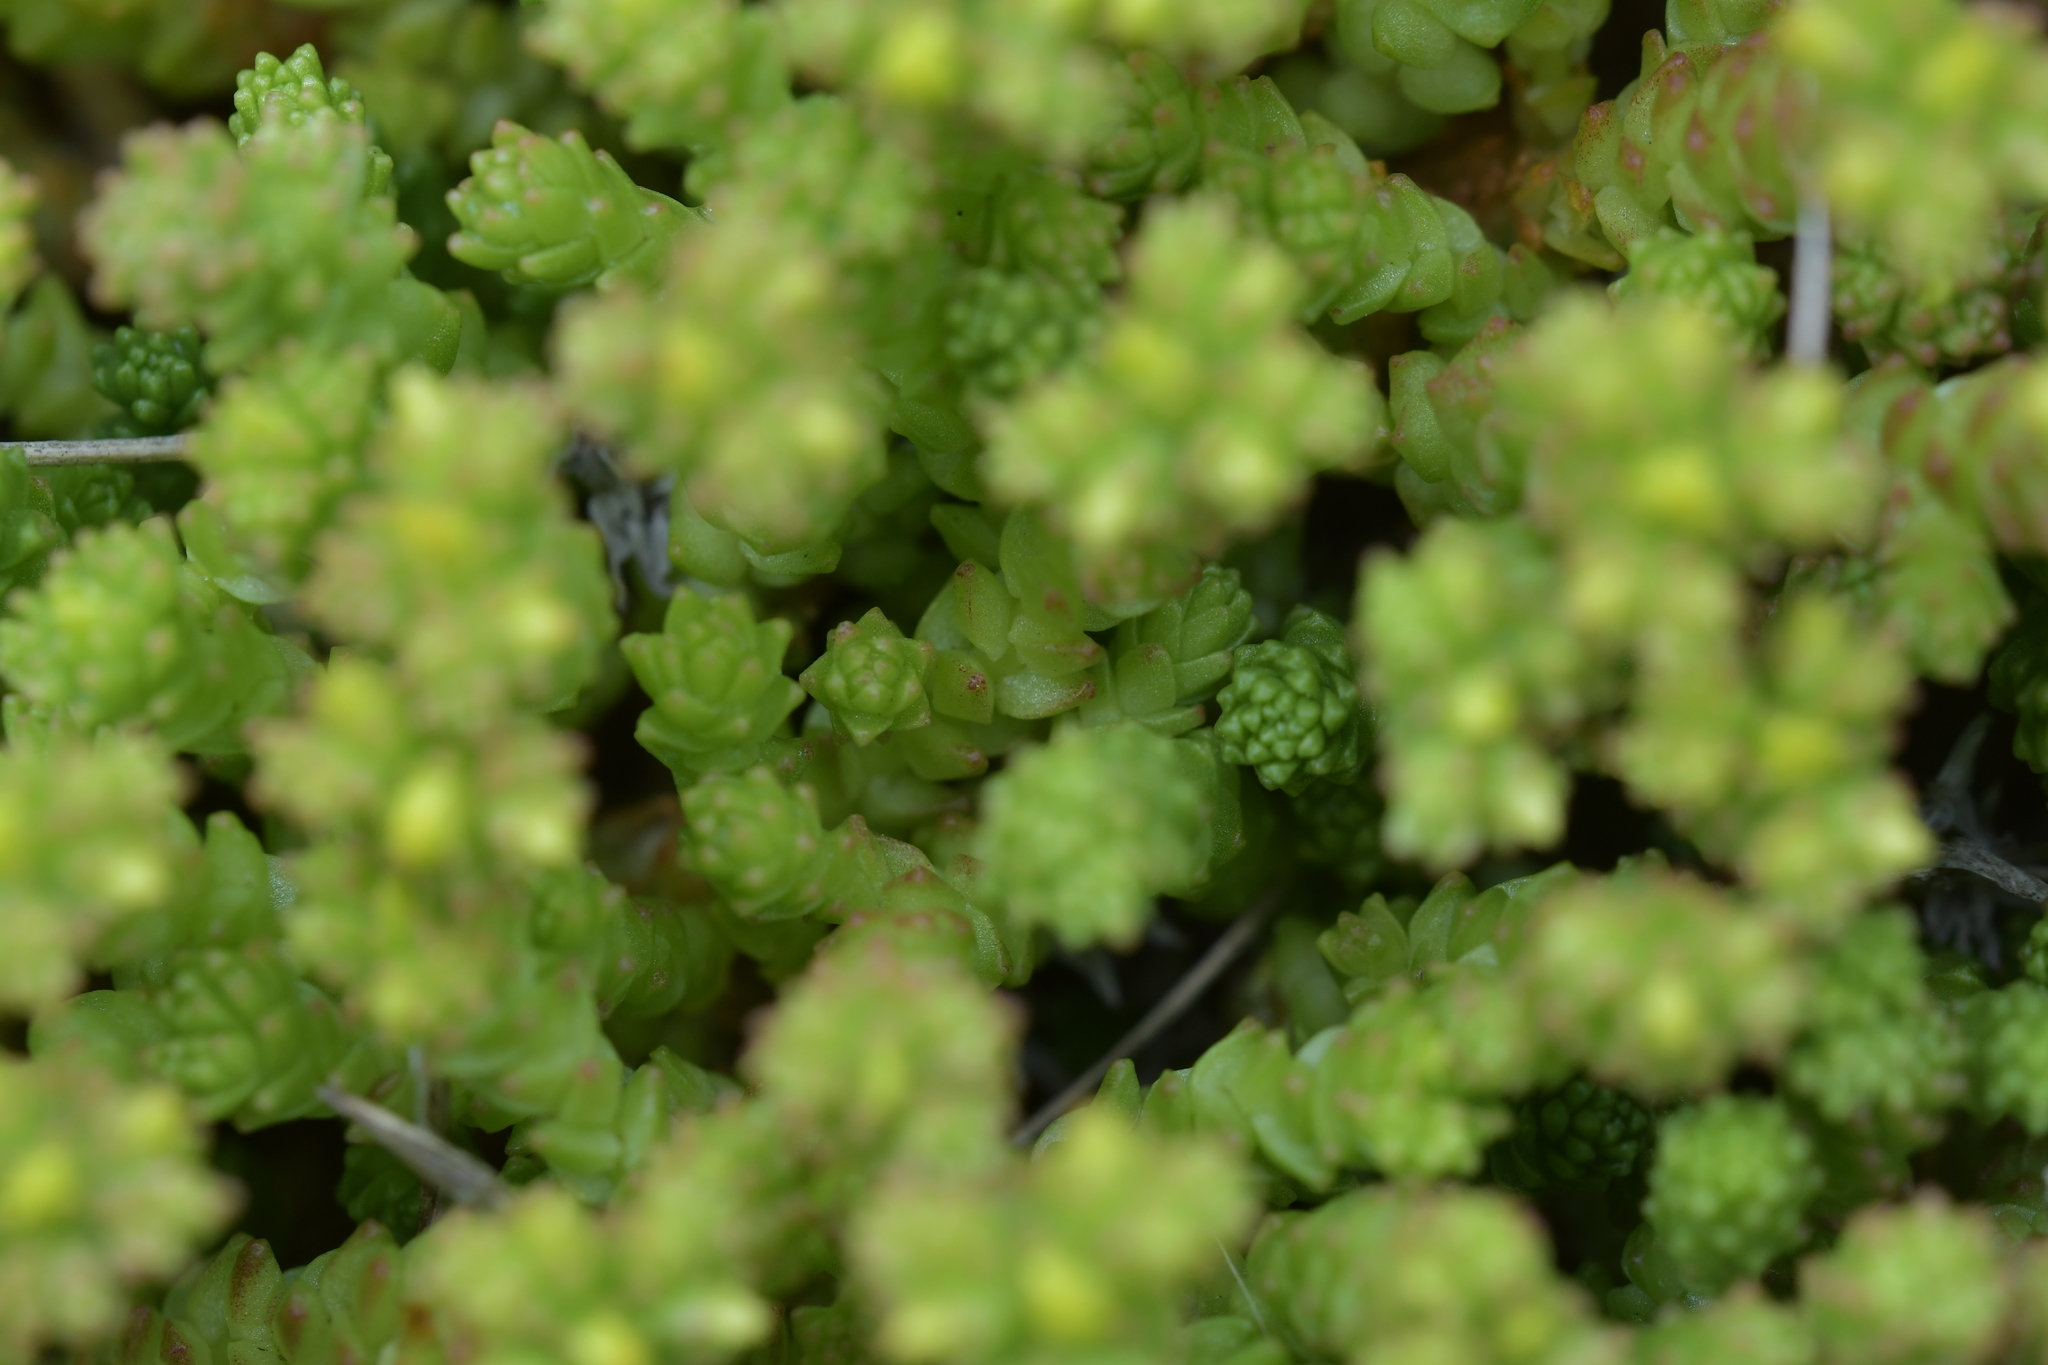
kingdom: Plantae
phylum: Tracheophyta
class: Magnoliopsida
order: Saxifragales
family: Crassulaceae
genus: Sedum
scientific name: Sedum acre
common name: Biting stonecrop
